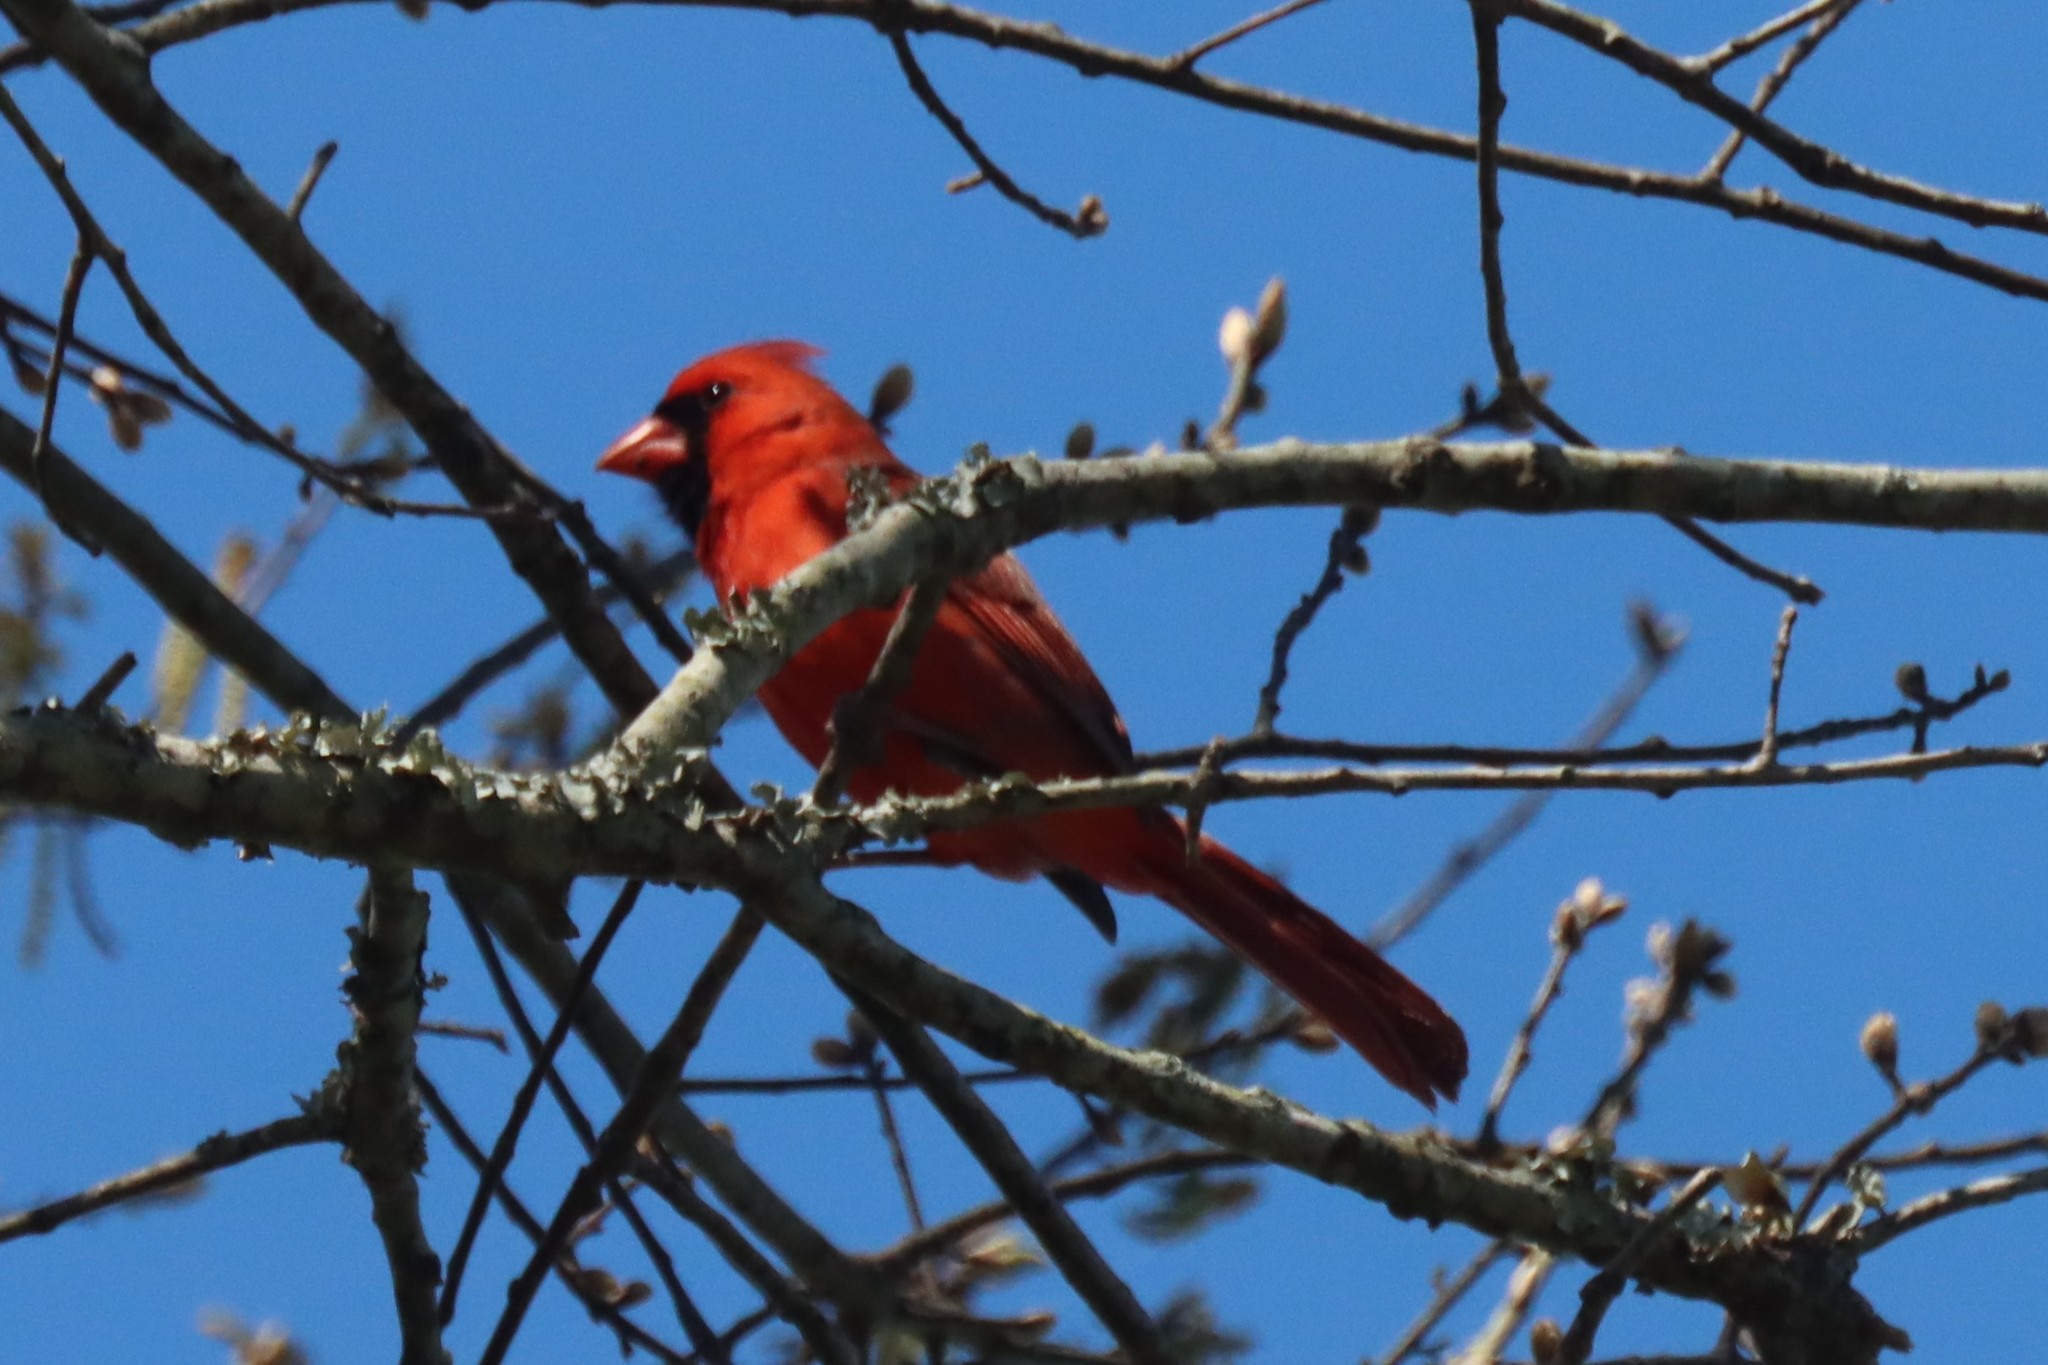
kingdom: Animalia
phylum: Chordata
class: Aves
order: Passeriformes
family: Cardinalidae
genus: Cardinalis
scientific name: Cardinalis cardinalis
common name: Northern cardinal
